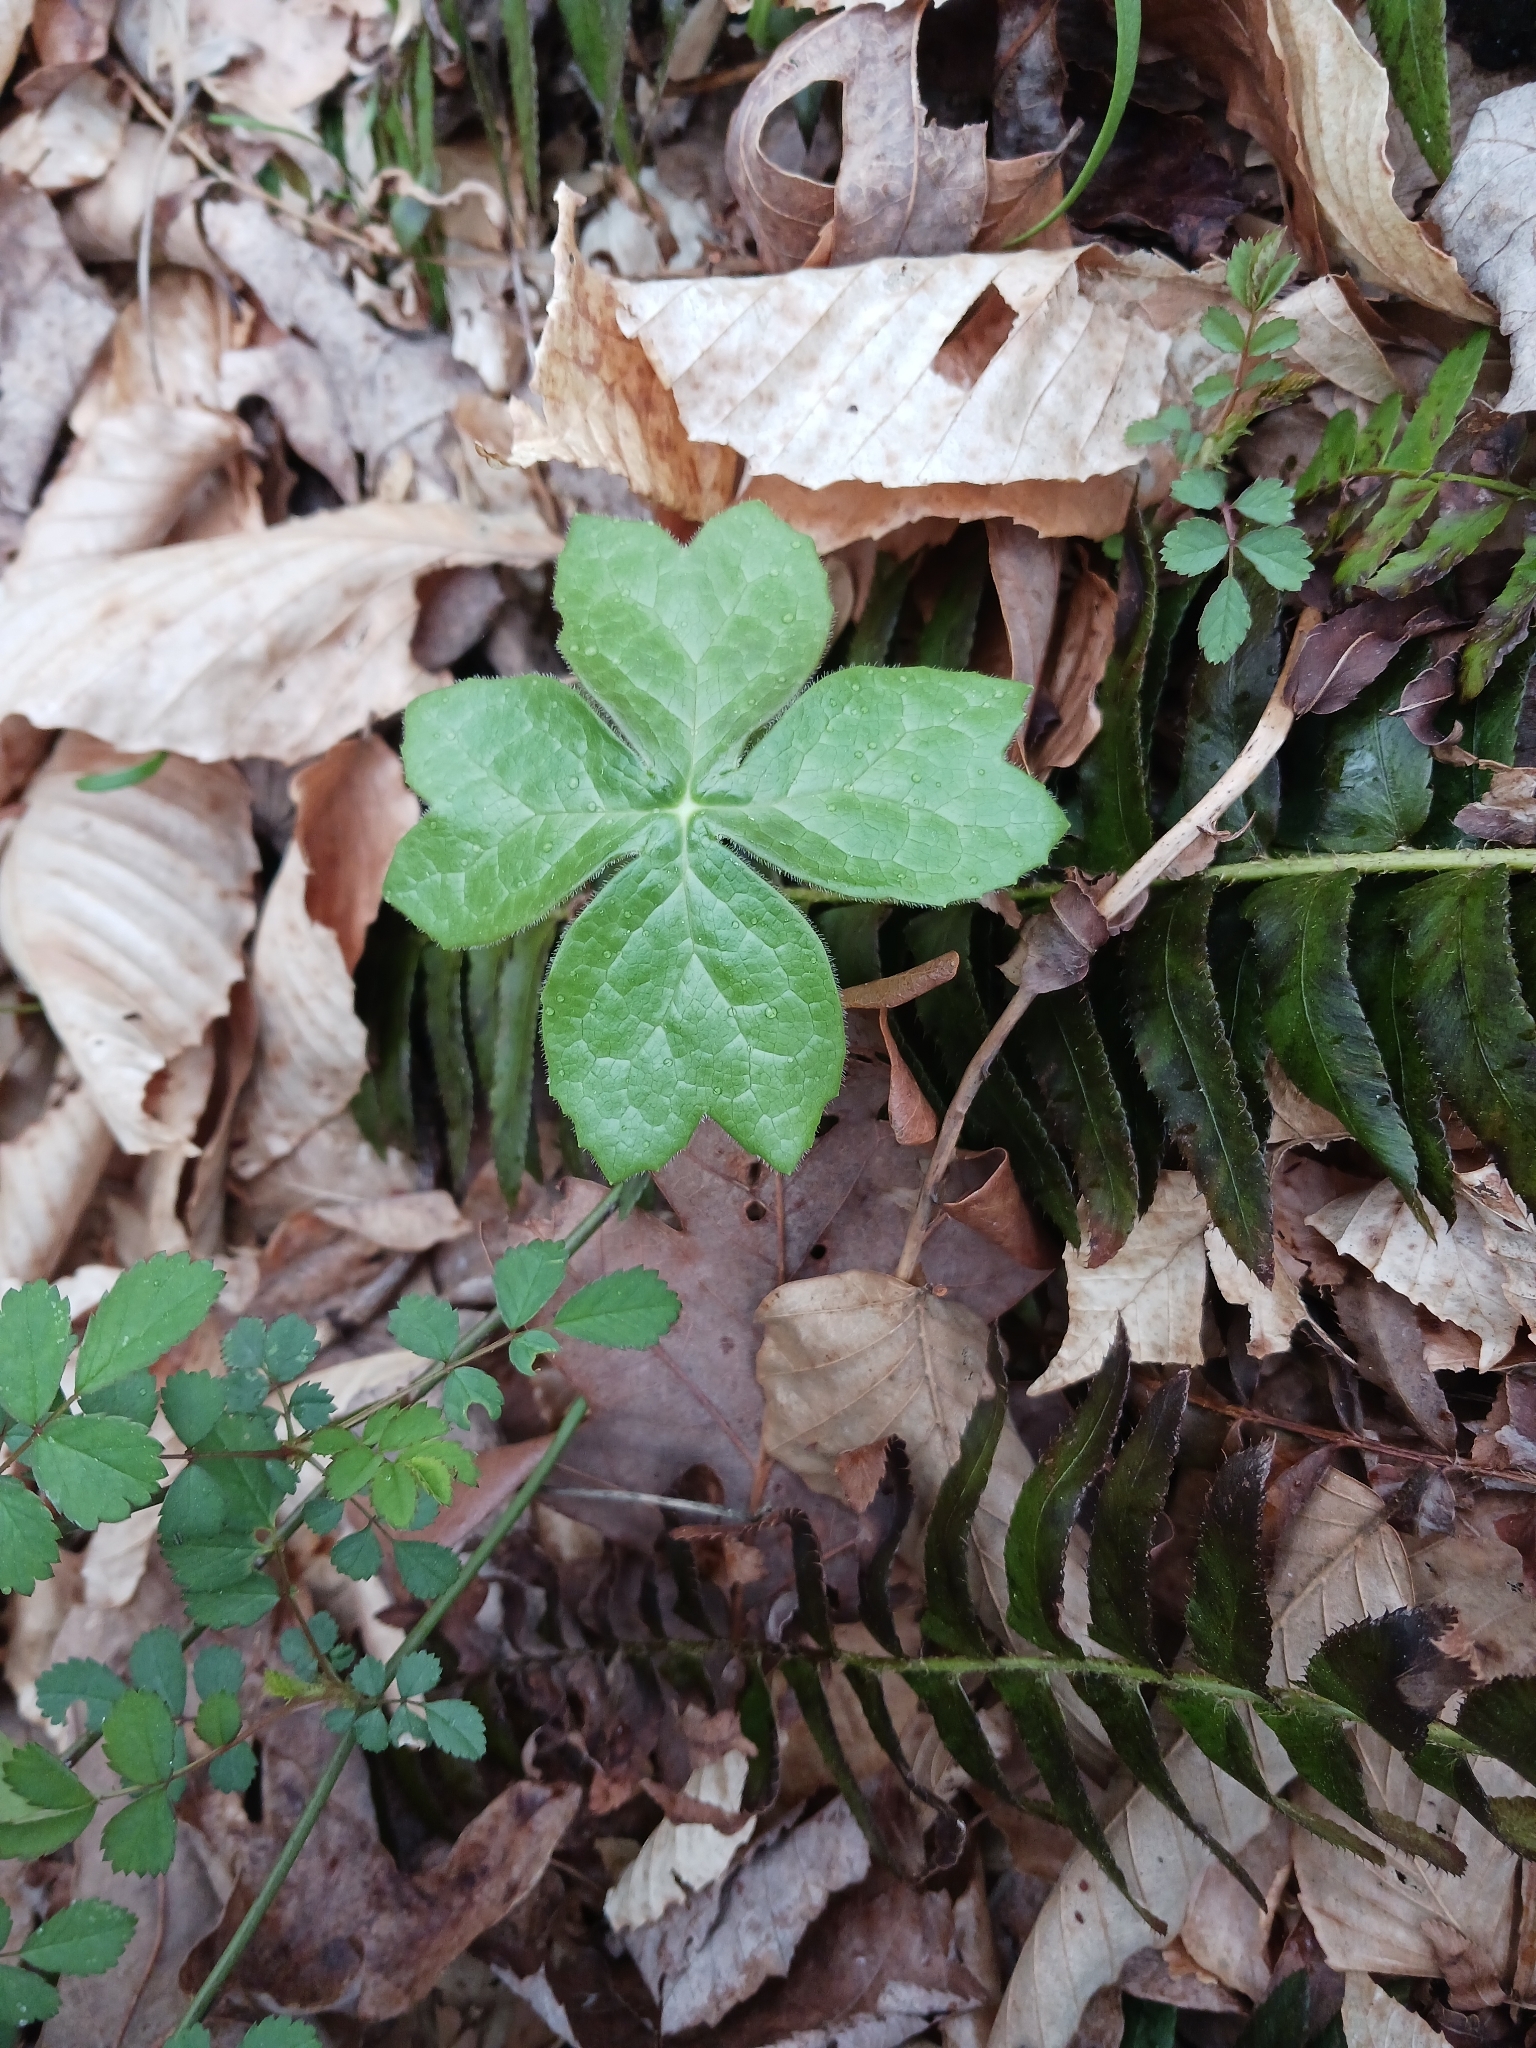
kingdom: Plantae
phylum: Tracheophyta
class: Magnoliopsida
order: Ranunculales
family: Berberidaceae
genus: Podophyllum
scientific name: Podophyllum peltatum
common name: Wild mandrake
